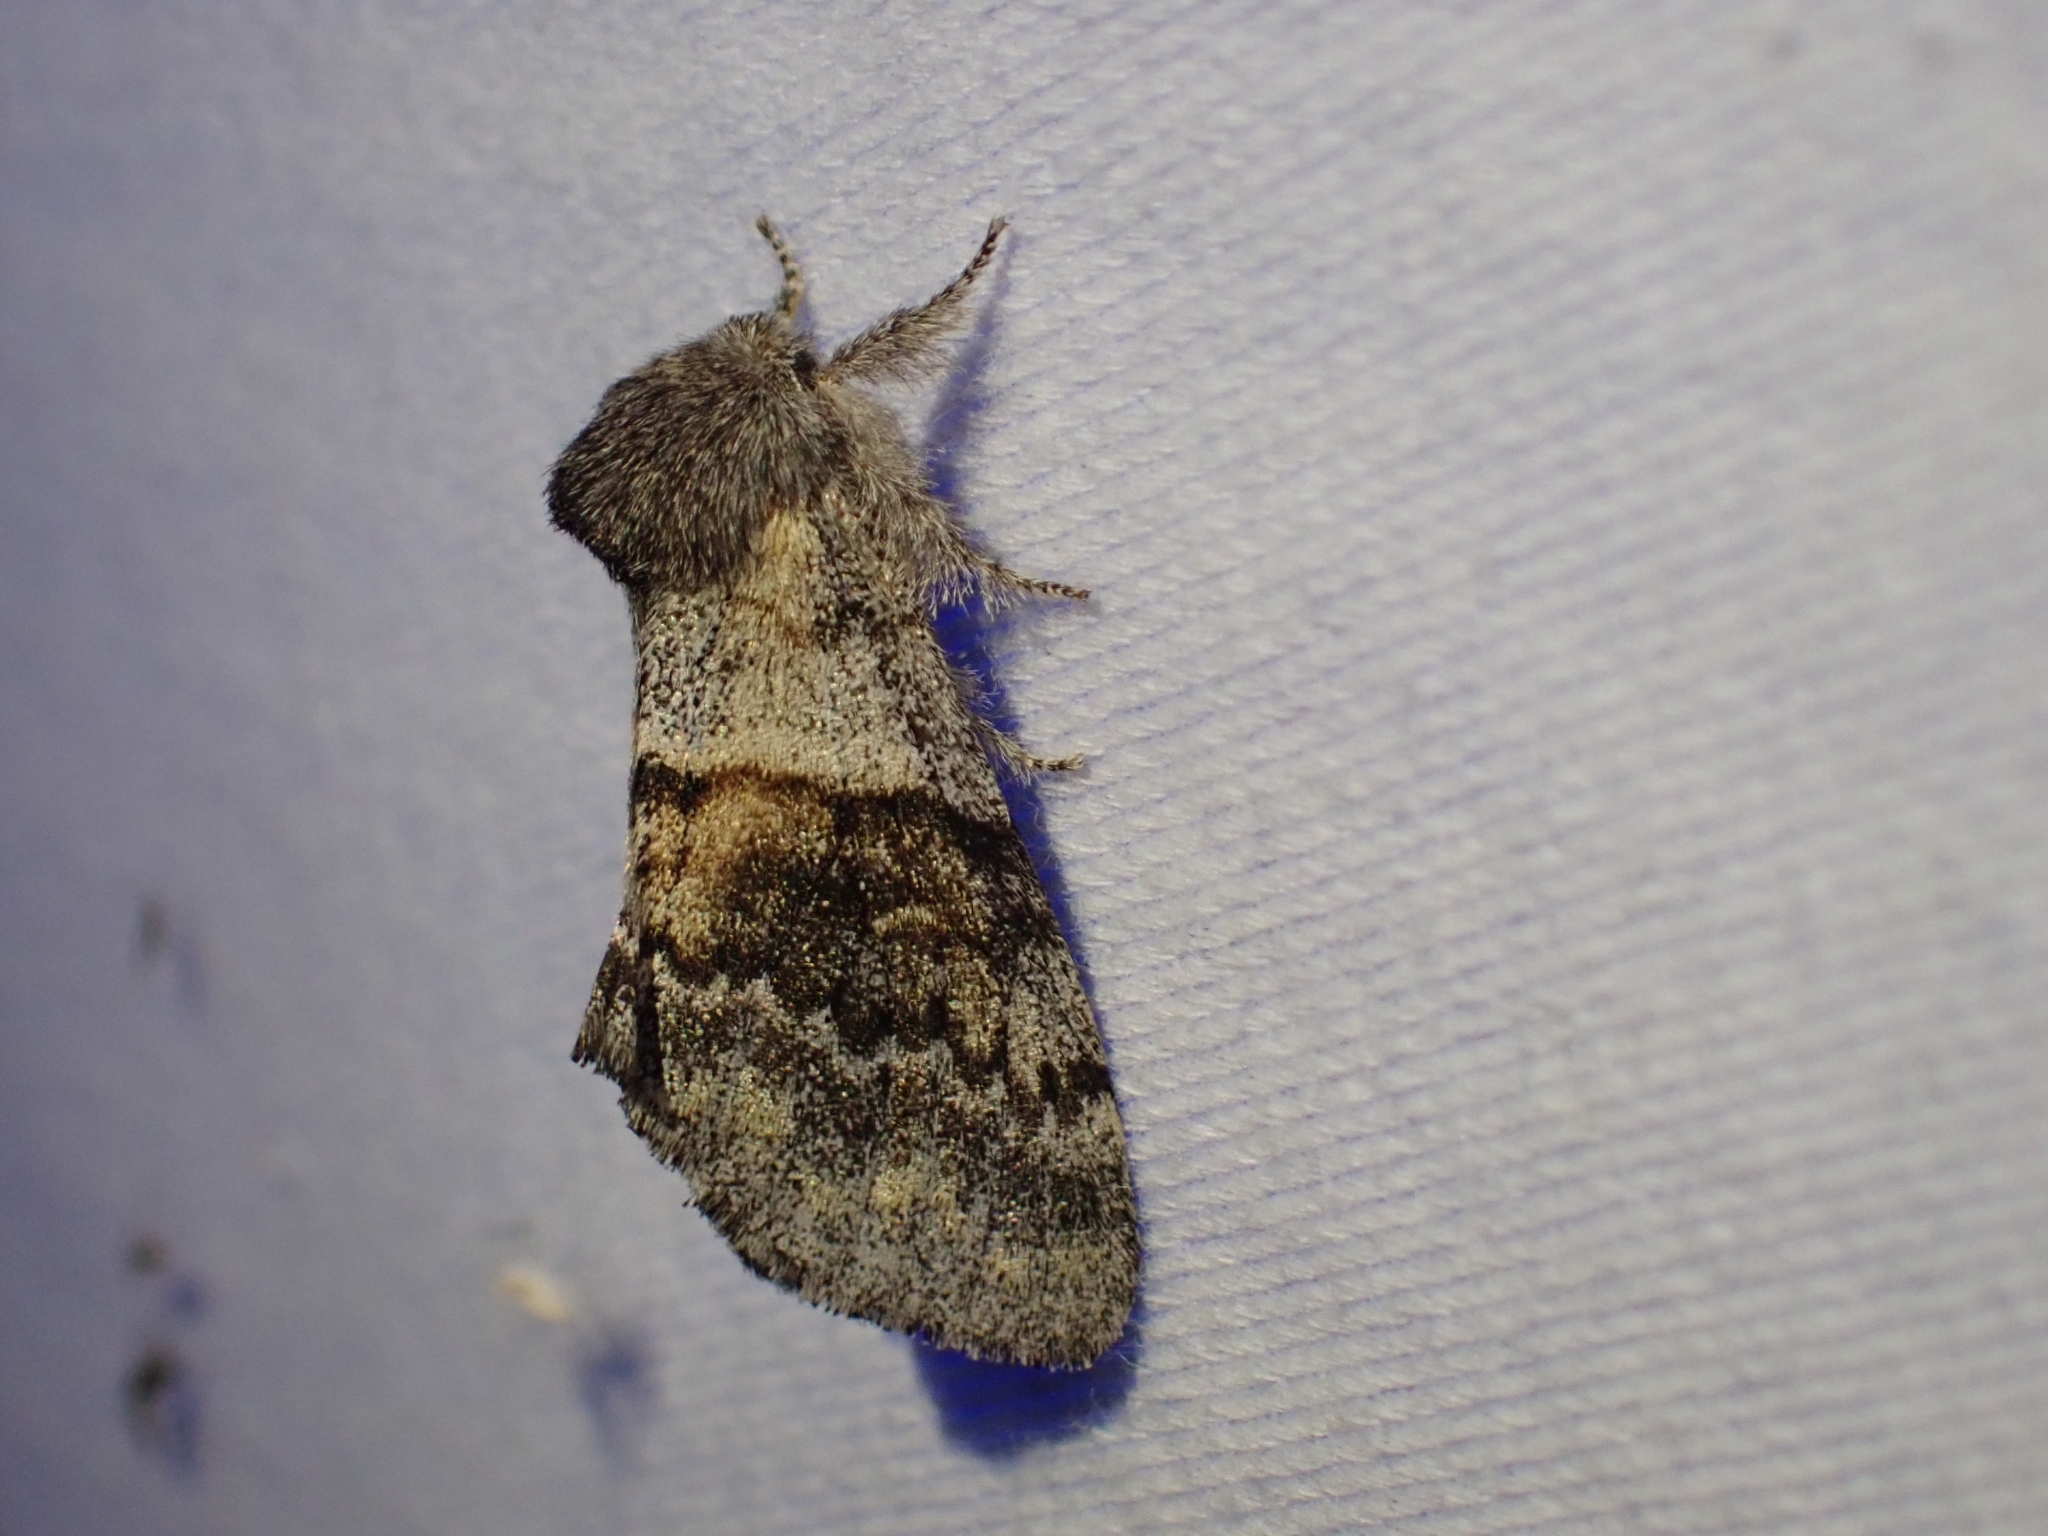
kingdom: Animalia
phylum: Arthropoda
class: Insecta
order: Lepidoptera
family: Notodontidae
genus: Gluphisia
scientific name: Gluphisia severa
